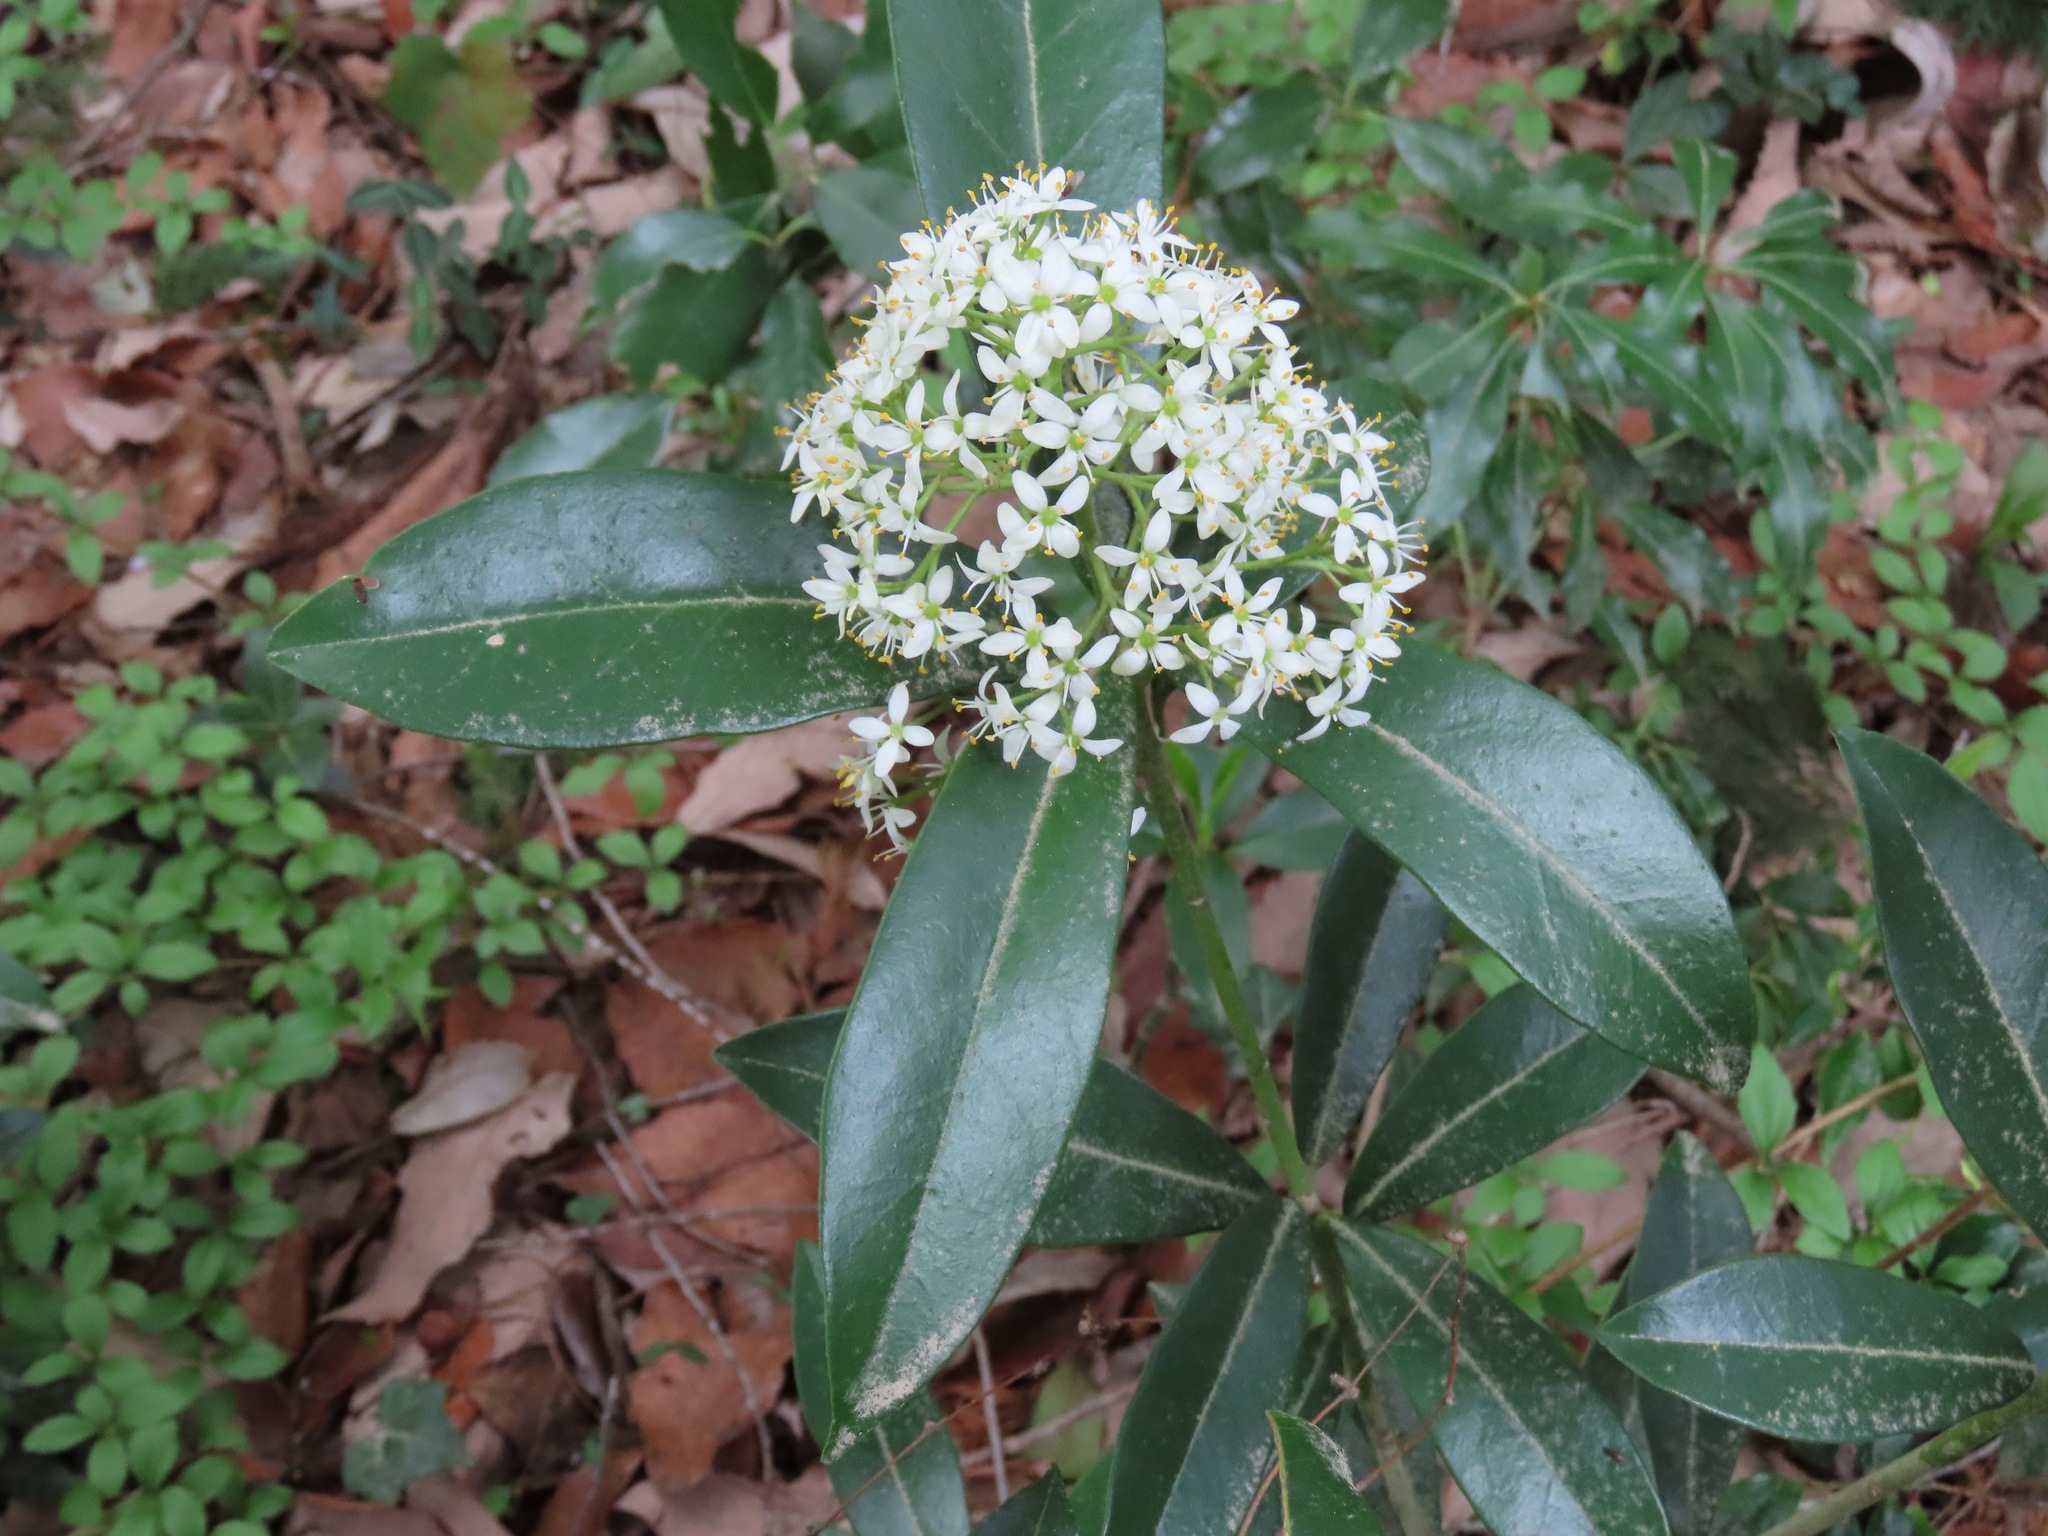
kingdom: Plantae
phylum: Tracheophyta
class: Magnoliopsida
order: Sapindales
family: Rutaceae
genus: Skimmia
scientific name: Skimmia japonica
